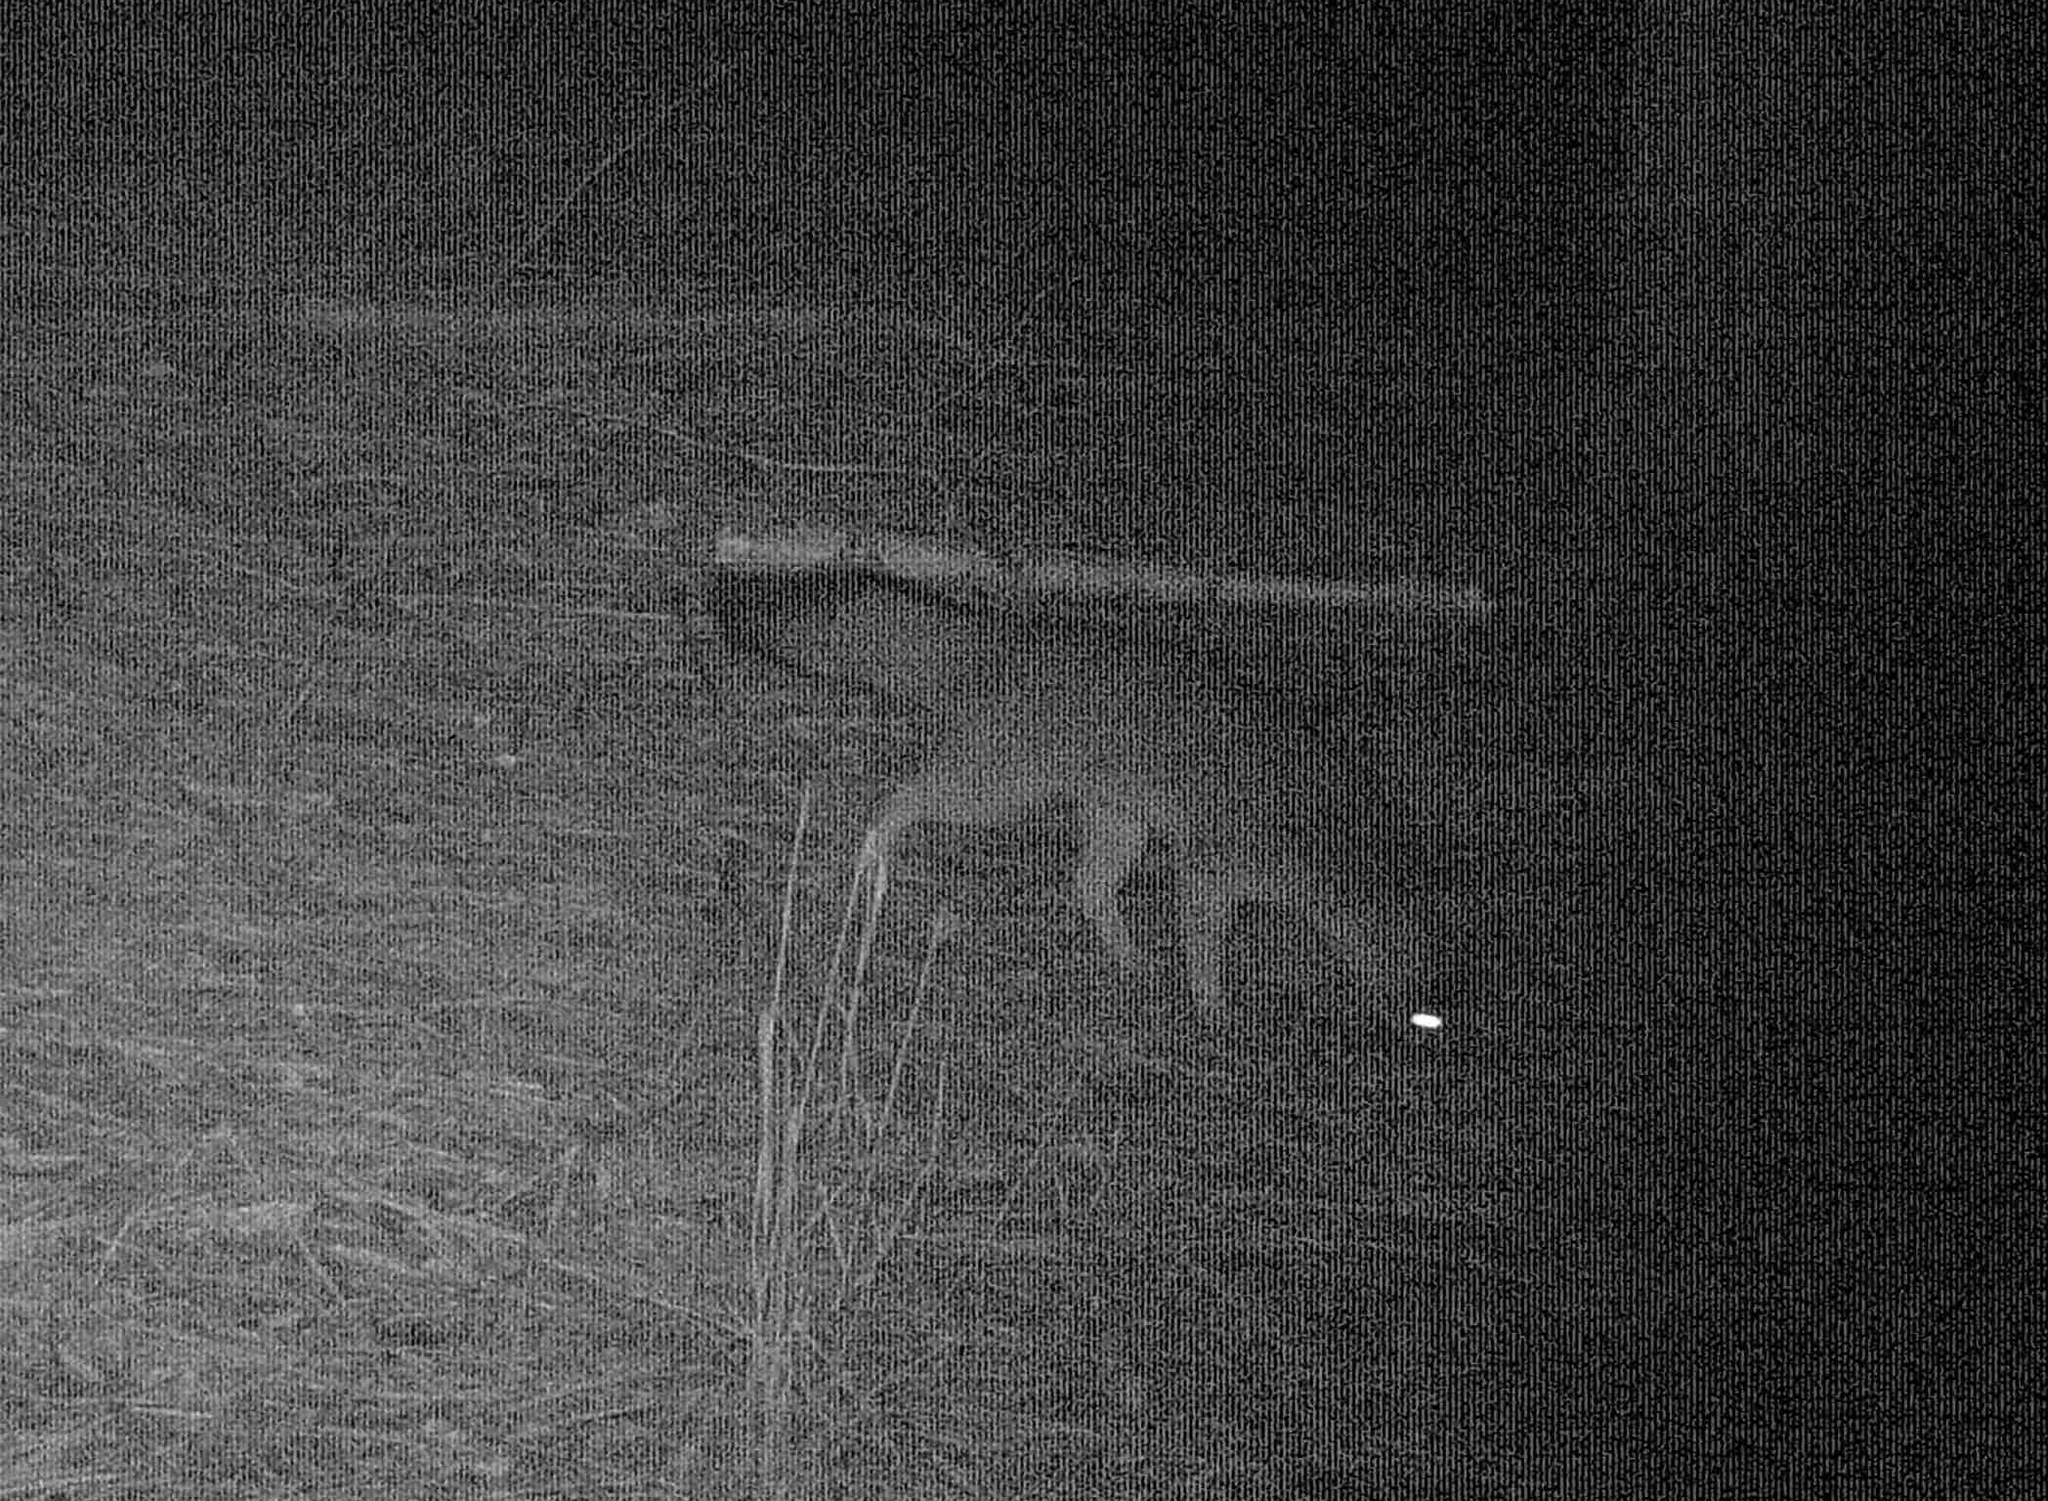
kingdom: Animalia
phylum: Chordata
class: Mammalia
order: Carnivora
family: Canidae
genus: Urocyon
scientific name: Urocyon cinereoargenteus
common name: Gray fox
